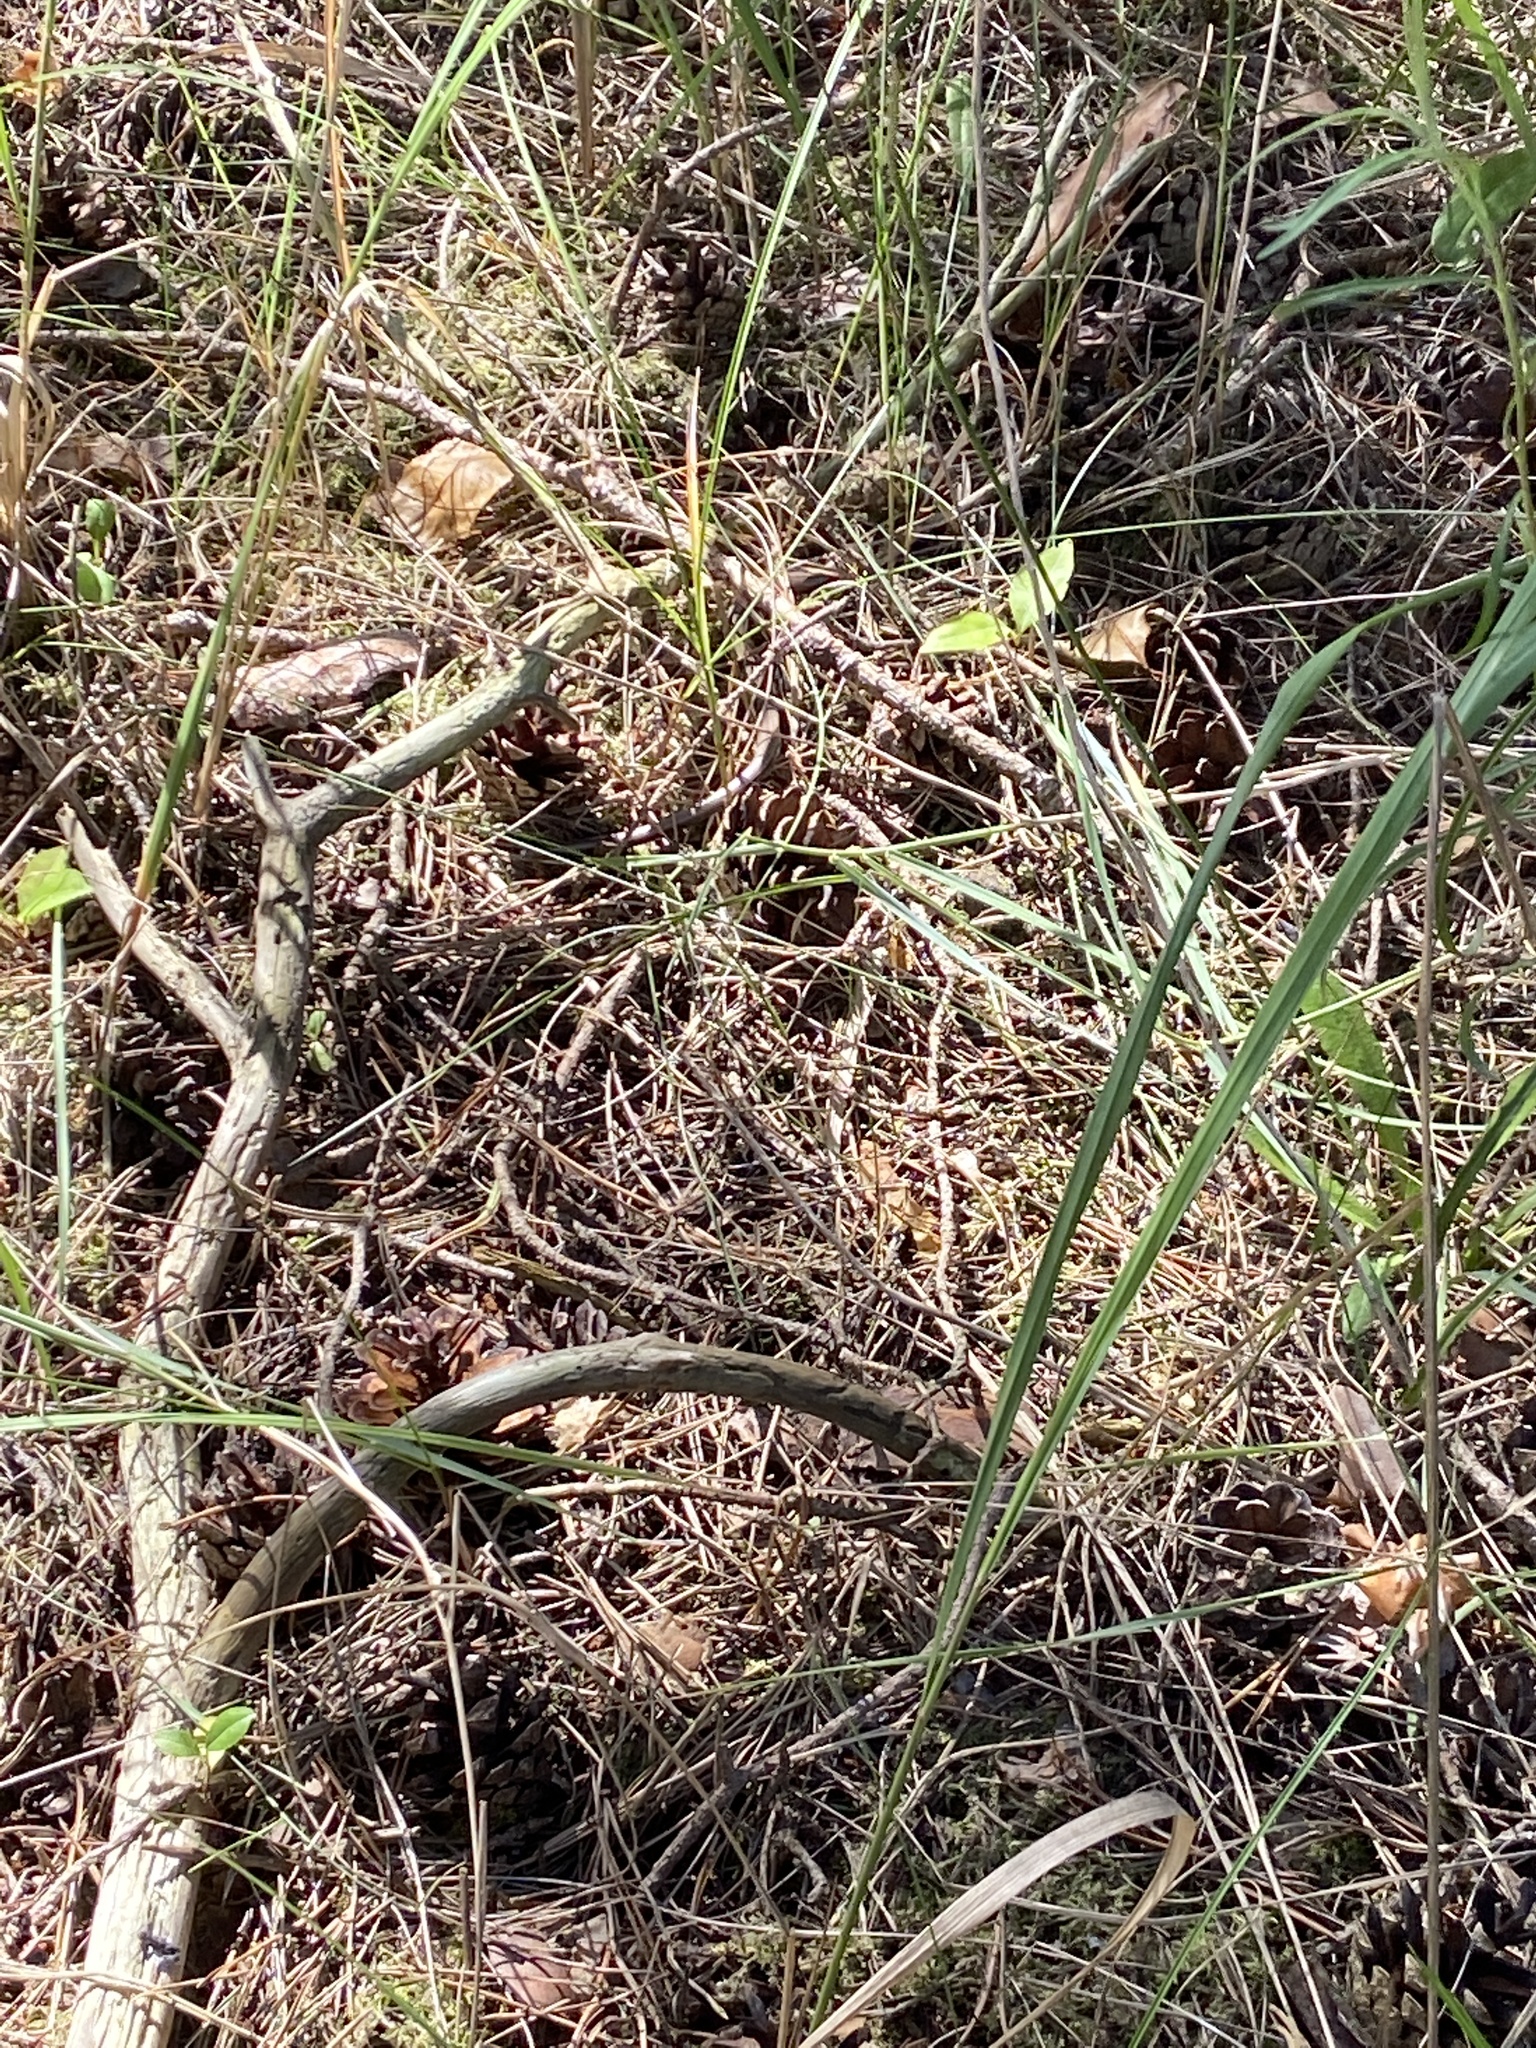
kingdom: Animalia
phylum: Chordata
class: Squamata
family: Anguidae
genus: Anguis
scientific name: Anguis fragilis
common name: Slow worm
